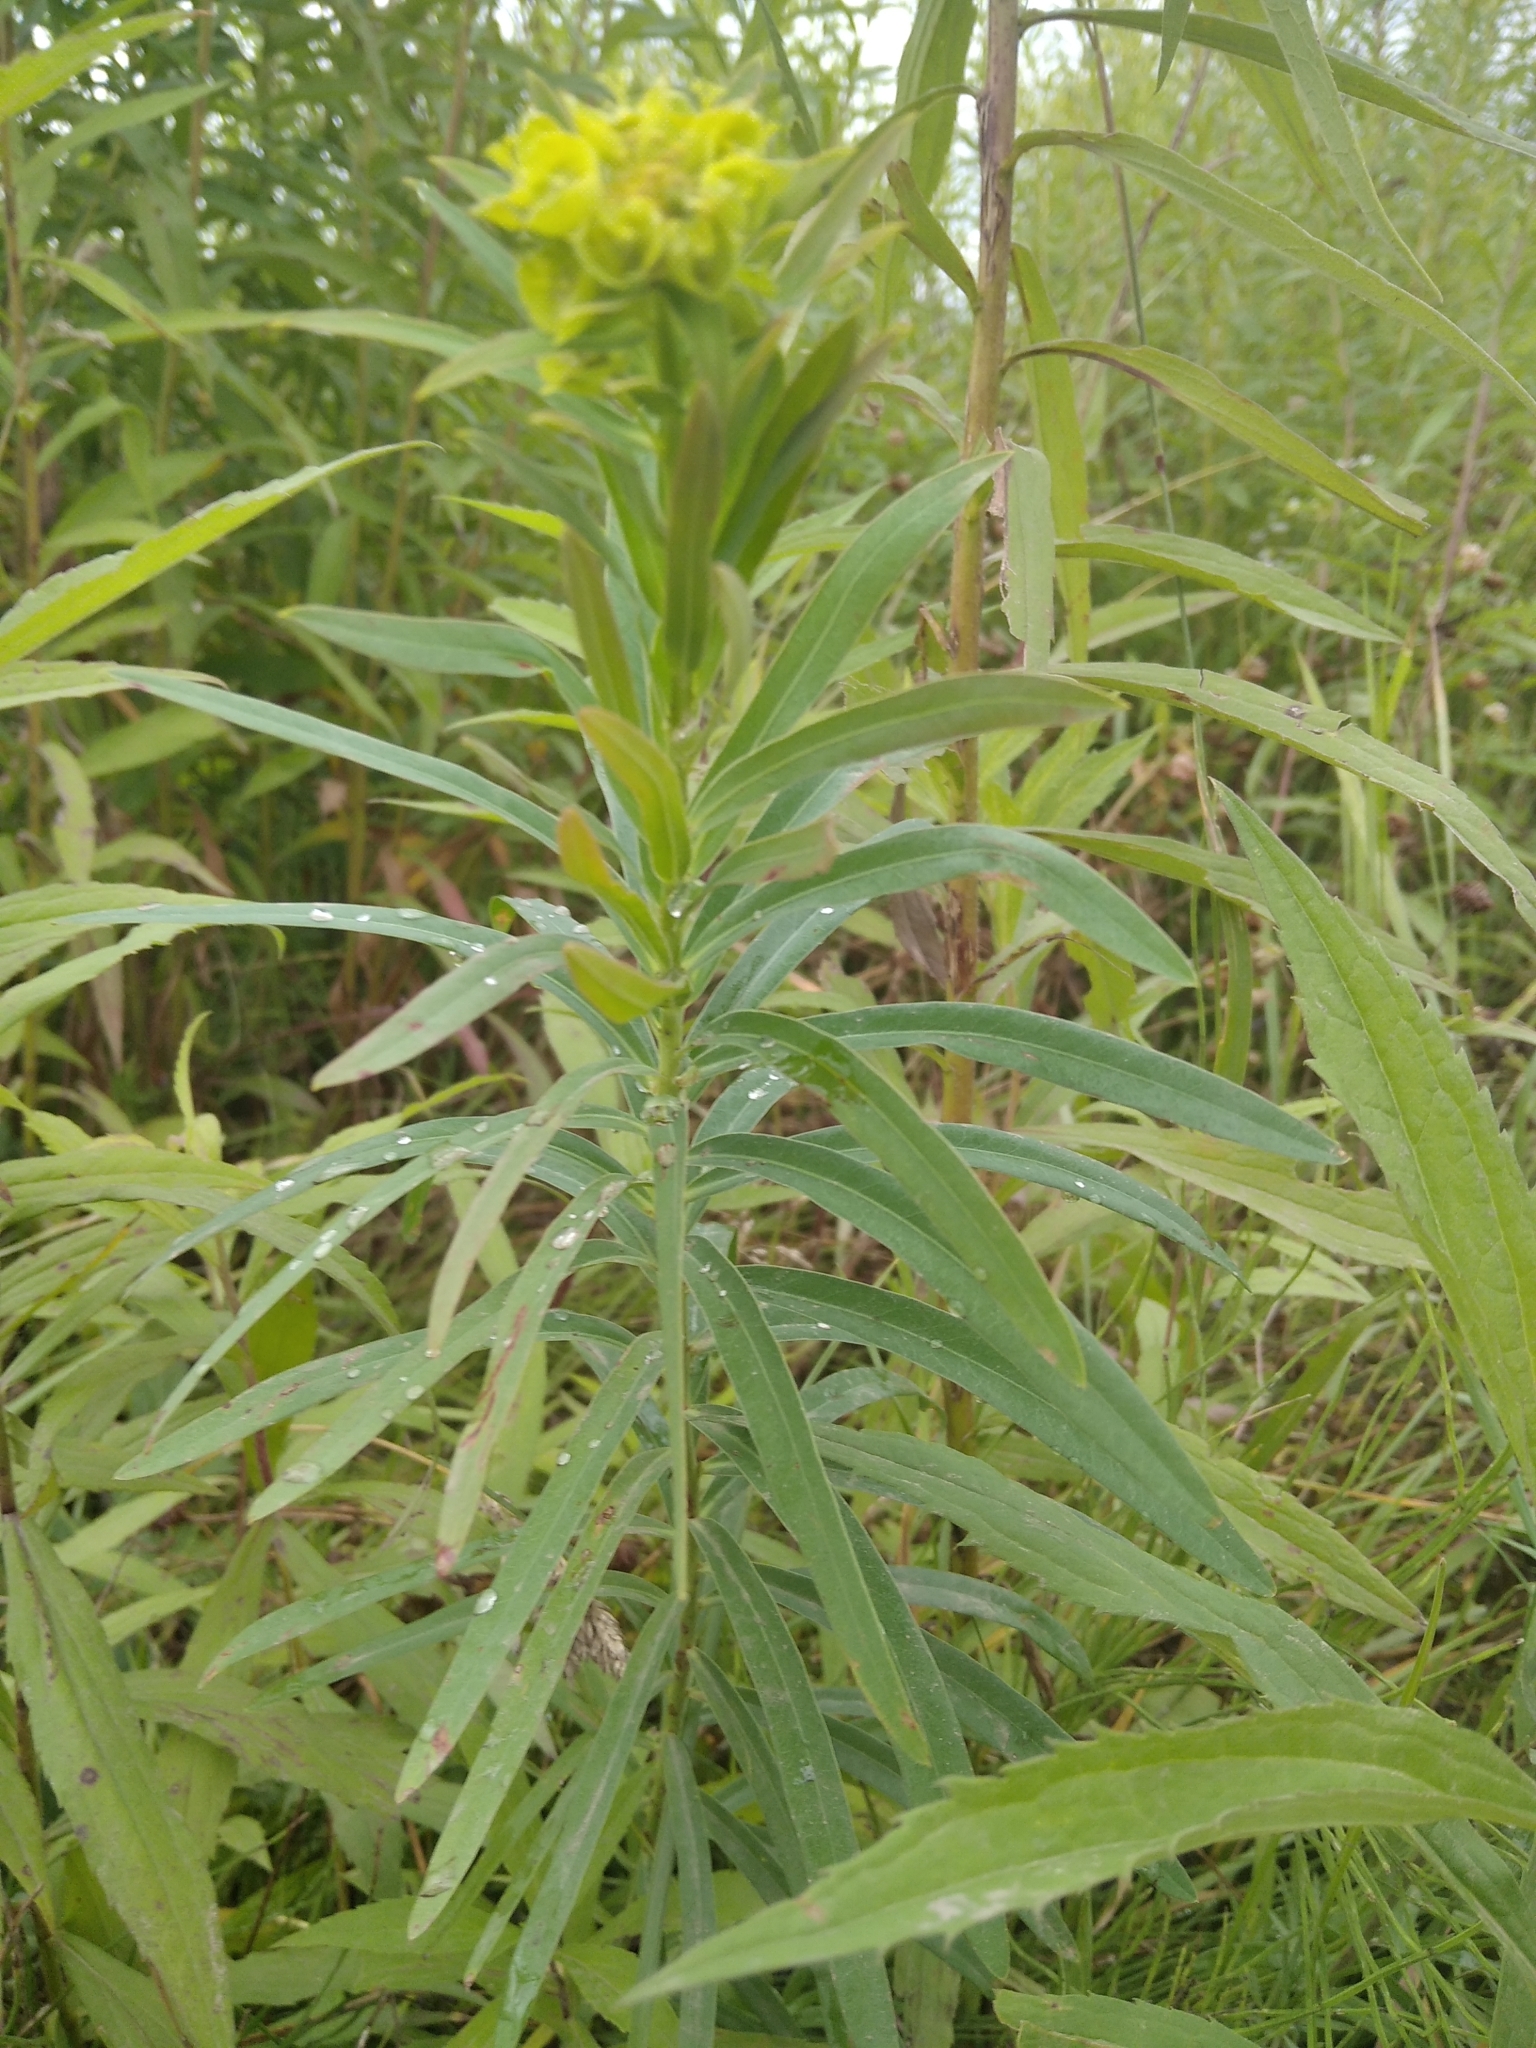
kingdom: Plantae
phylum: Tracheophyta
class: Magnoliopsida
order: Malpighiales
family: Euphorbiaceae
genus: Euphorbia
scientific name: Euphorbia virgata
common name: Leafy spurge
